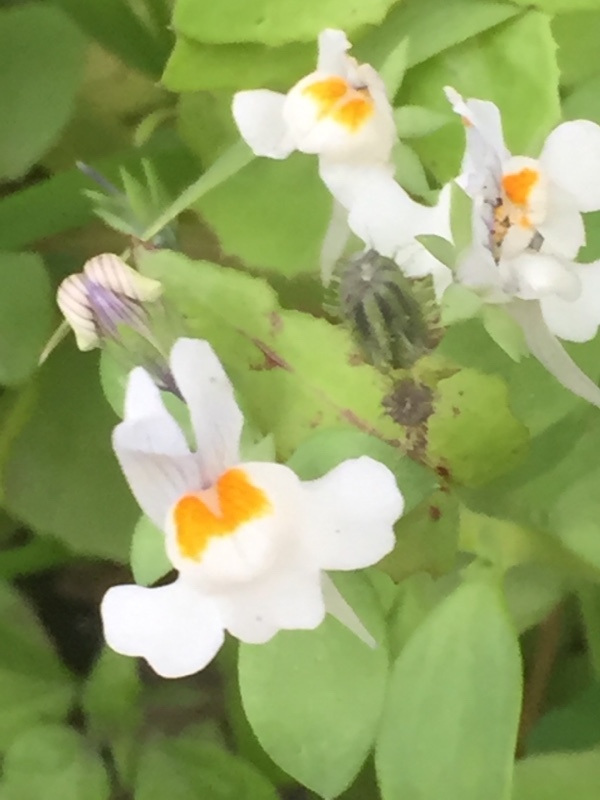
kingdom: Plantae
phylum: Tracheophyta
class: Magnoliopsida
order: Lamiales
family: Plantaginaceae
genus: Linaria
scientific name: Linaria reflexa
